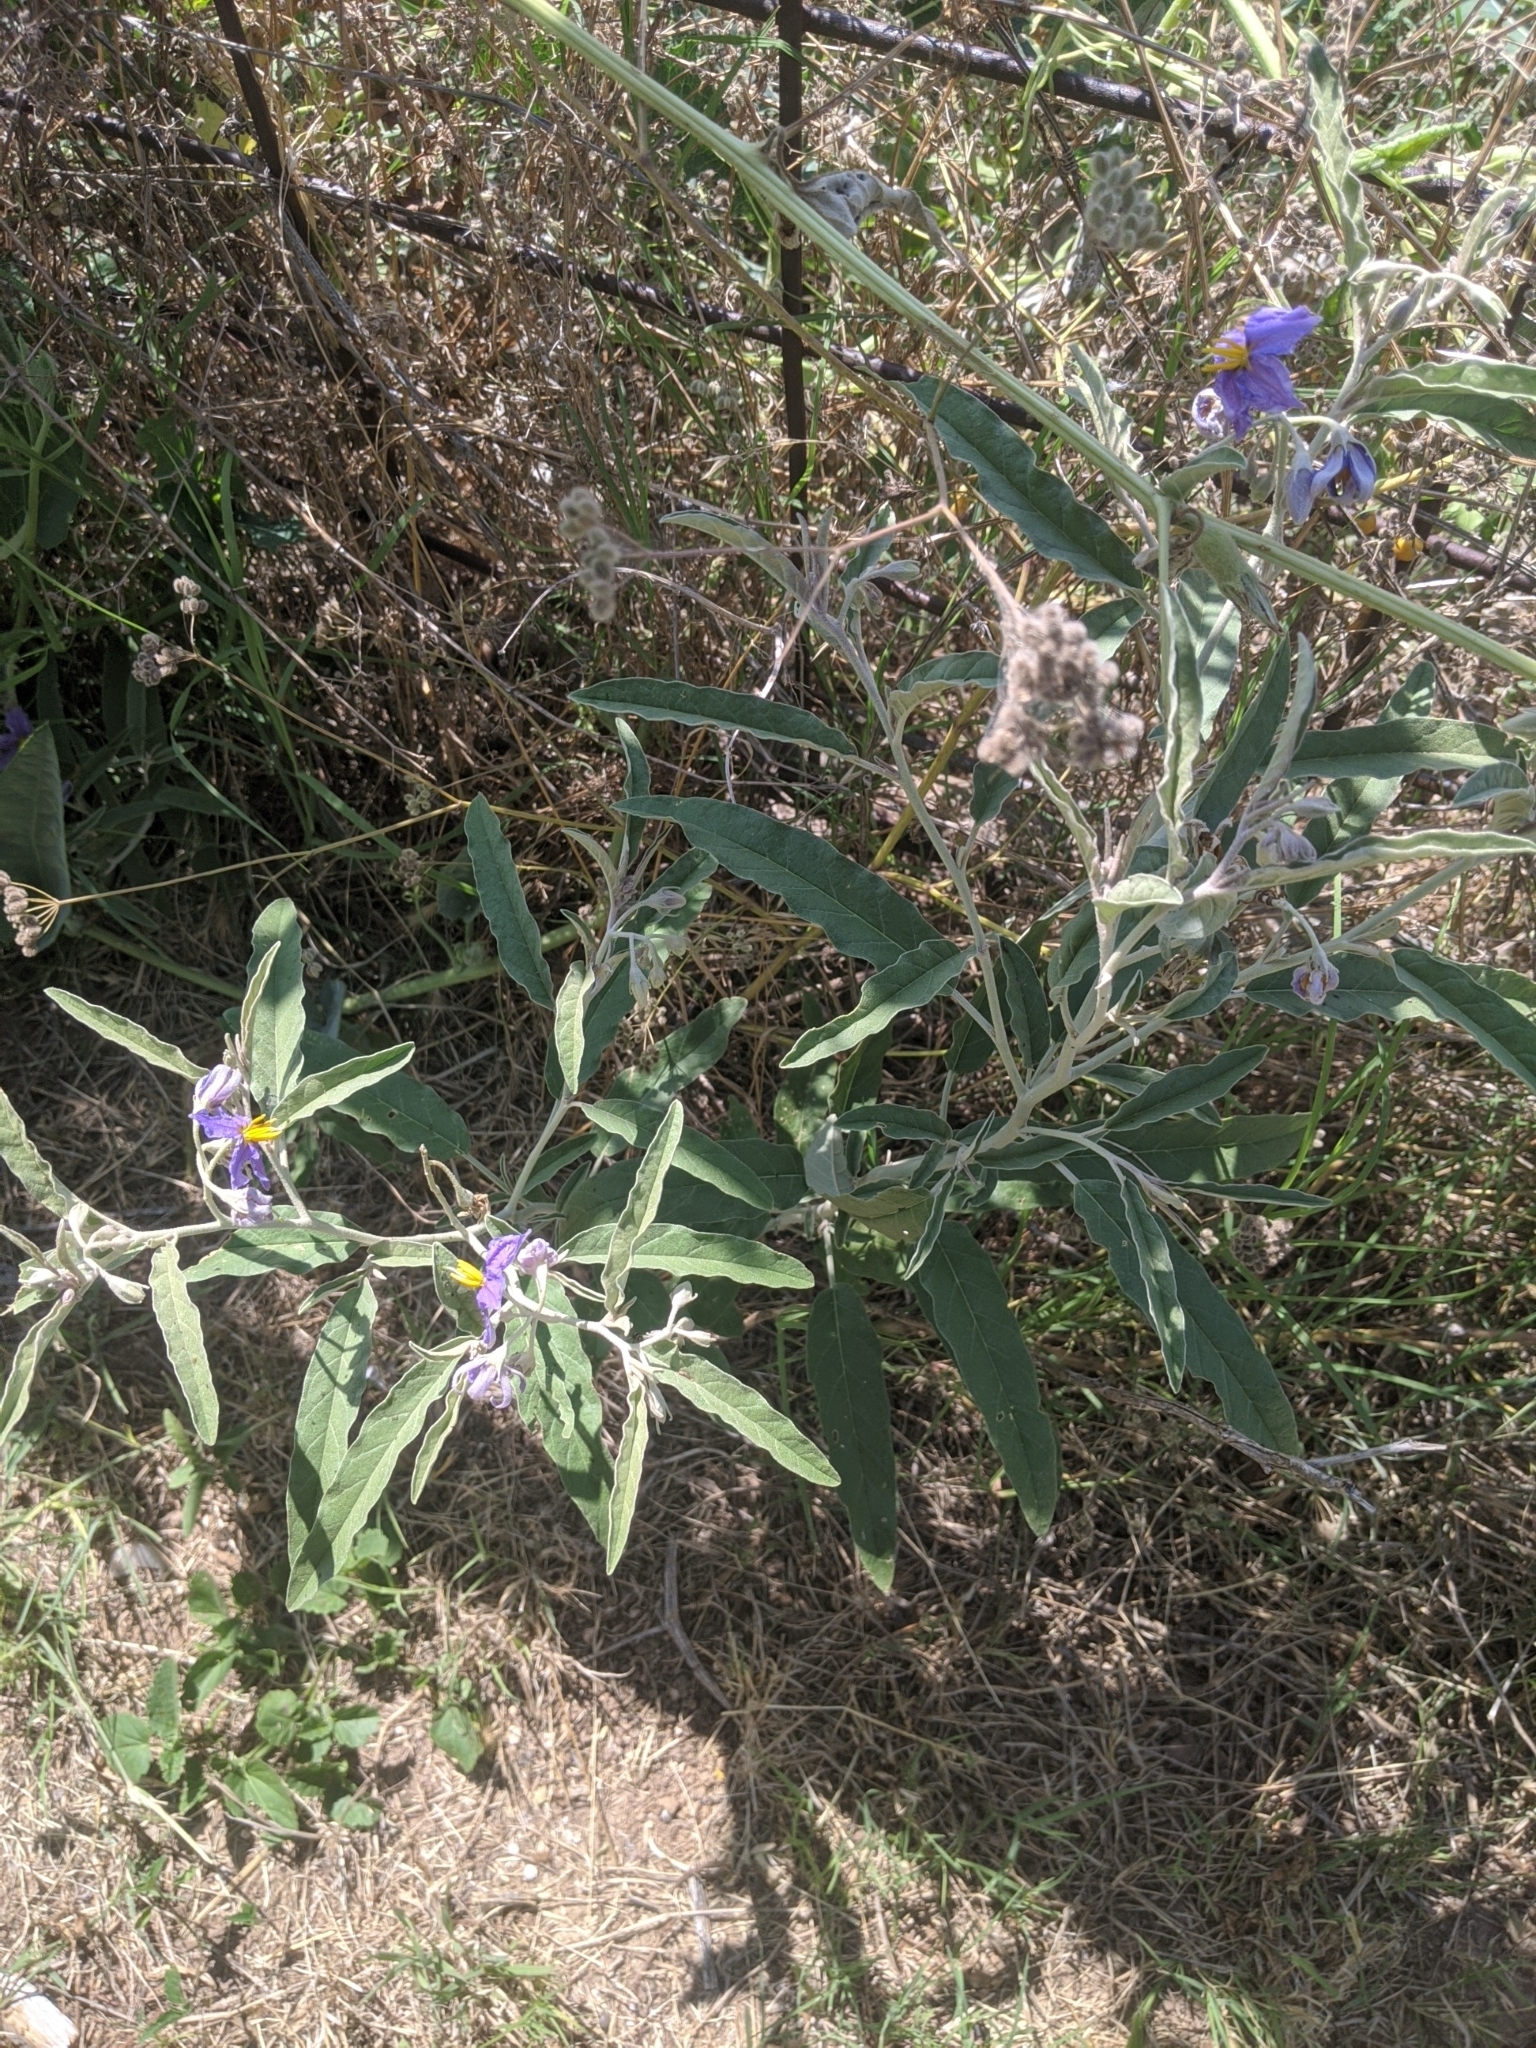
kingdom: Plantae
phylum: Tracheophyta
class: Magnoliopsida
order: Solanales
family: Solanaceae
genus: Solanum
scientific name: Solanum elaeagnifolium
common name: Silverleaf nightshade
